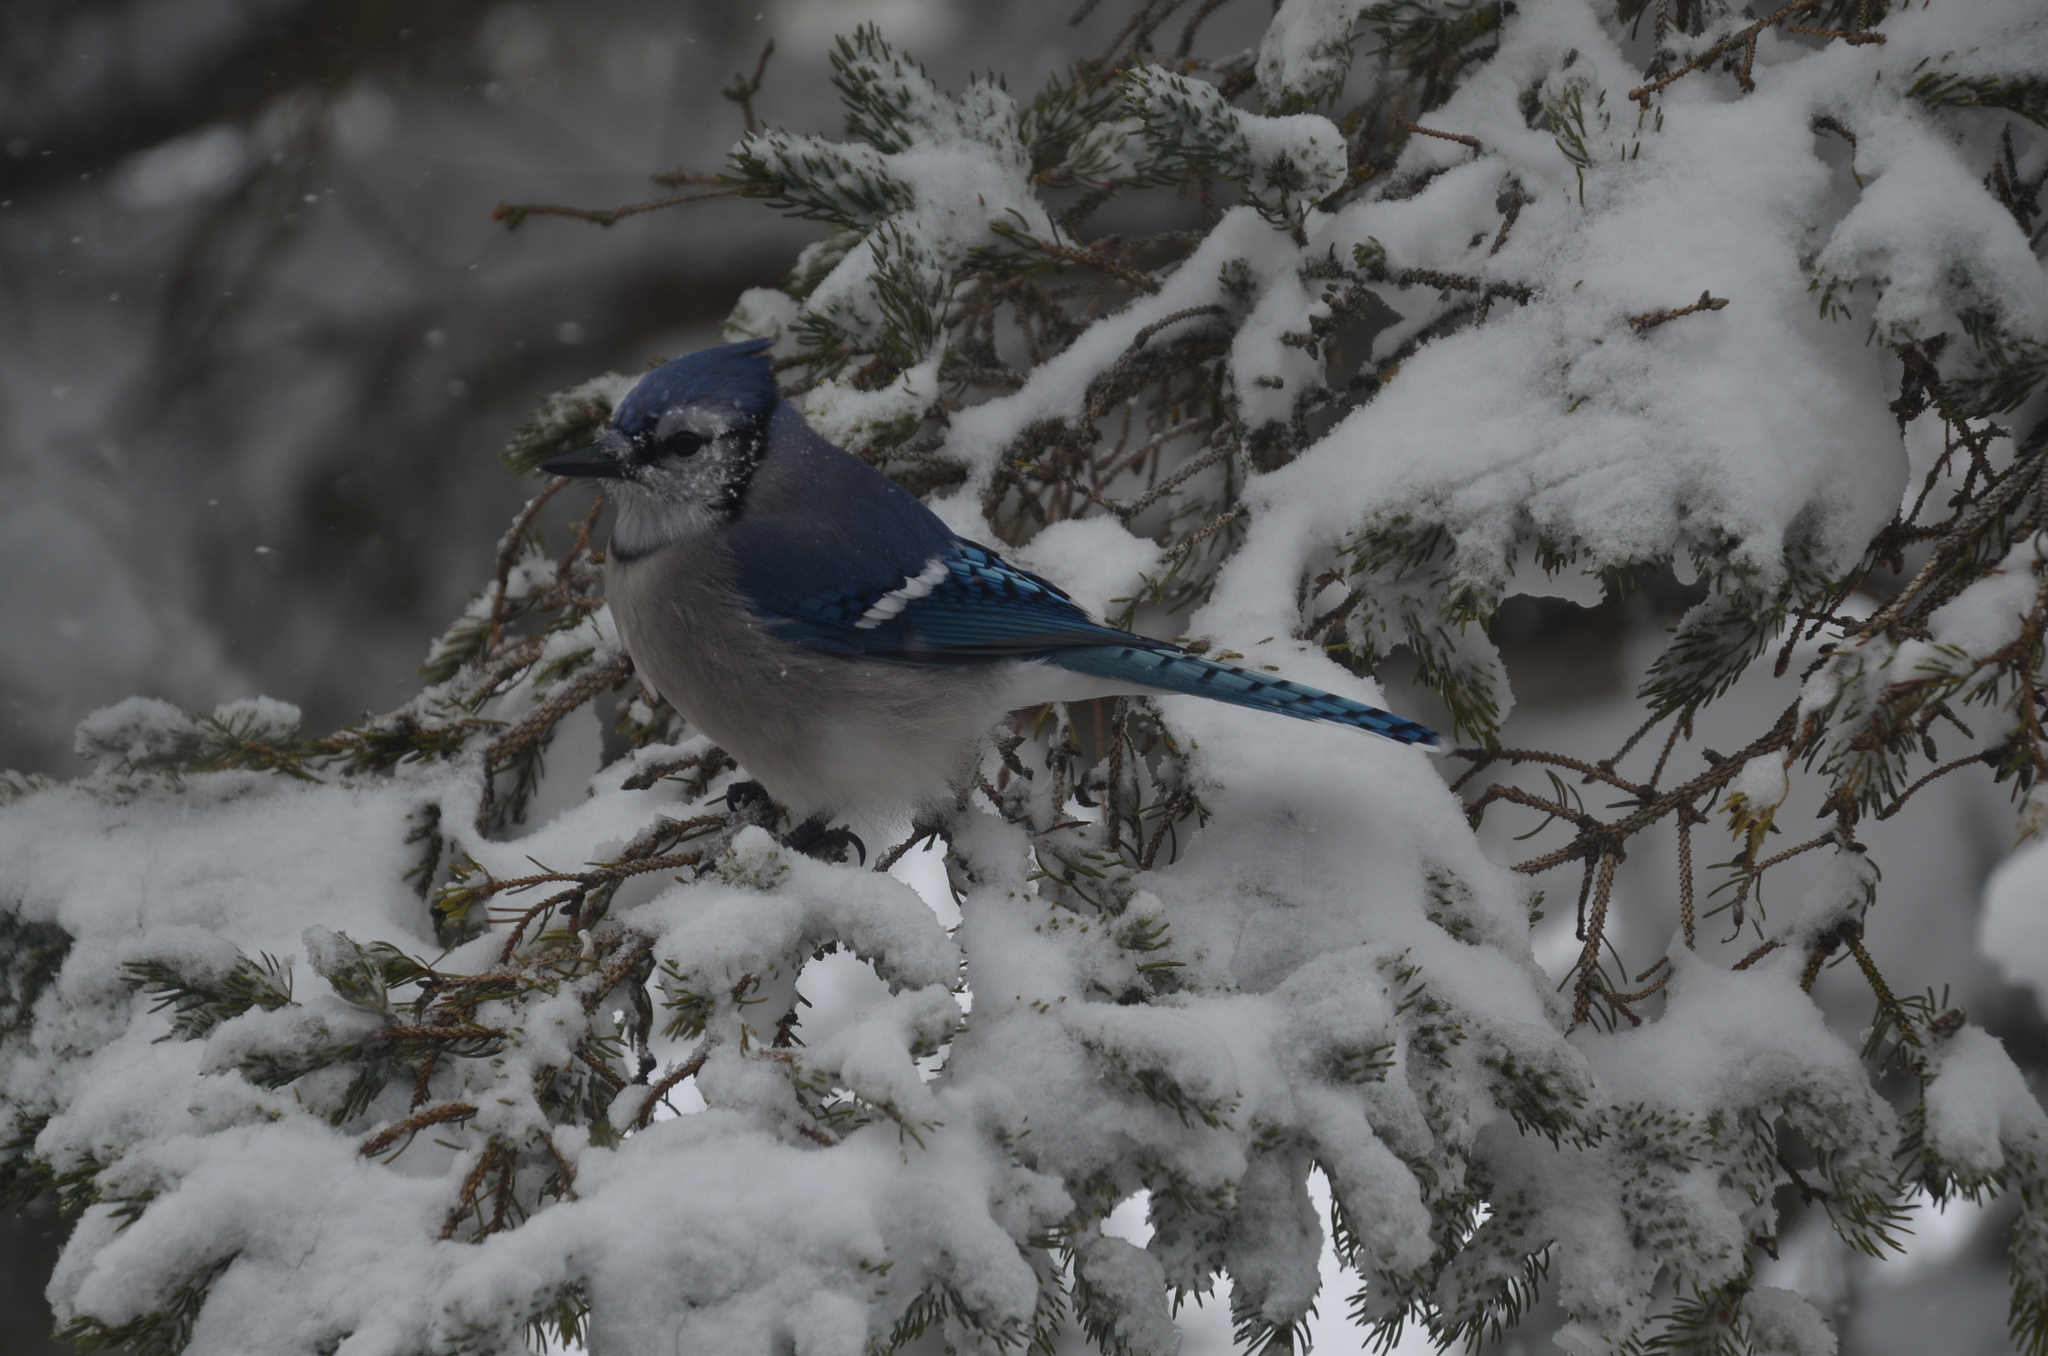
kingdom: Animalia
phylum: Chordata
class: Aves
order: Passeriformes
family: Corvidae
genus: Cyanocitta
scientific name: Cyanocitta cristata
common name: Blue jay
